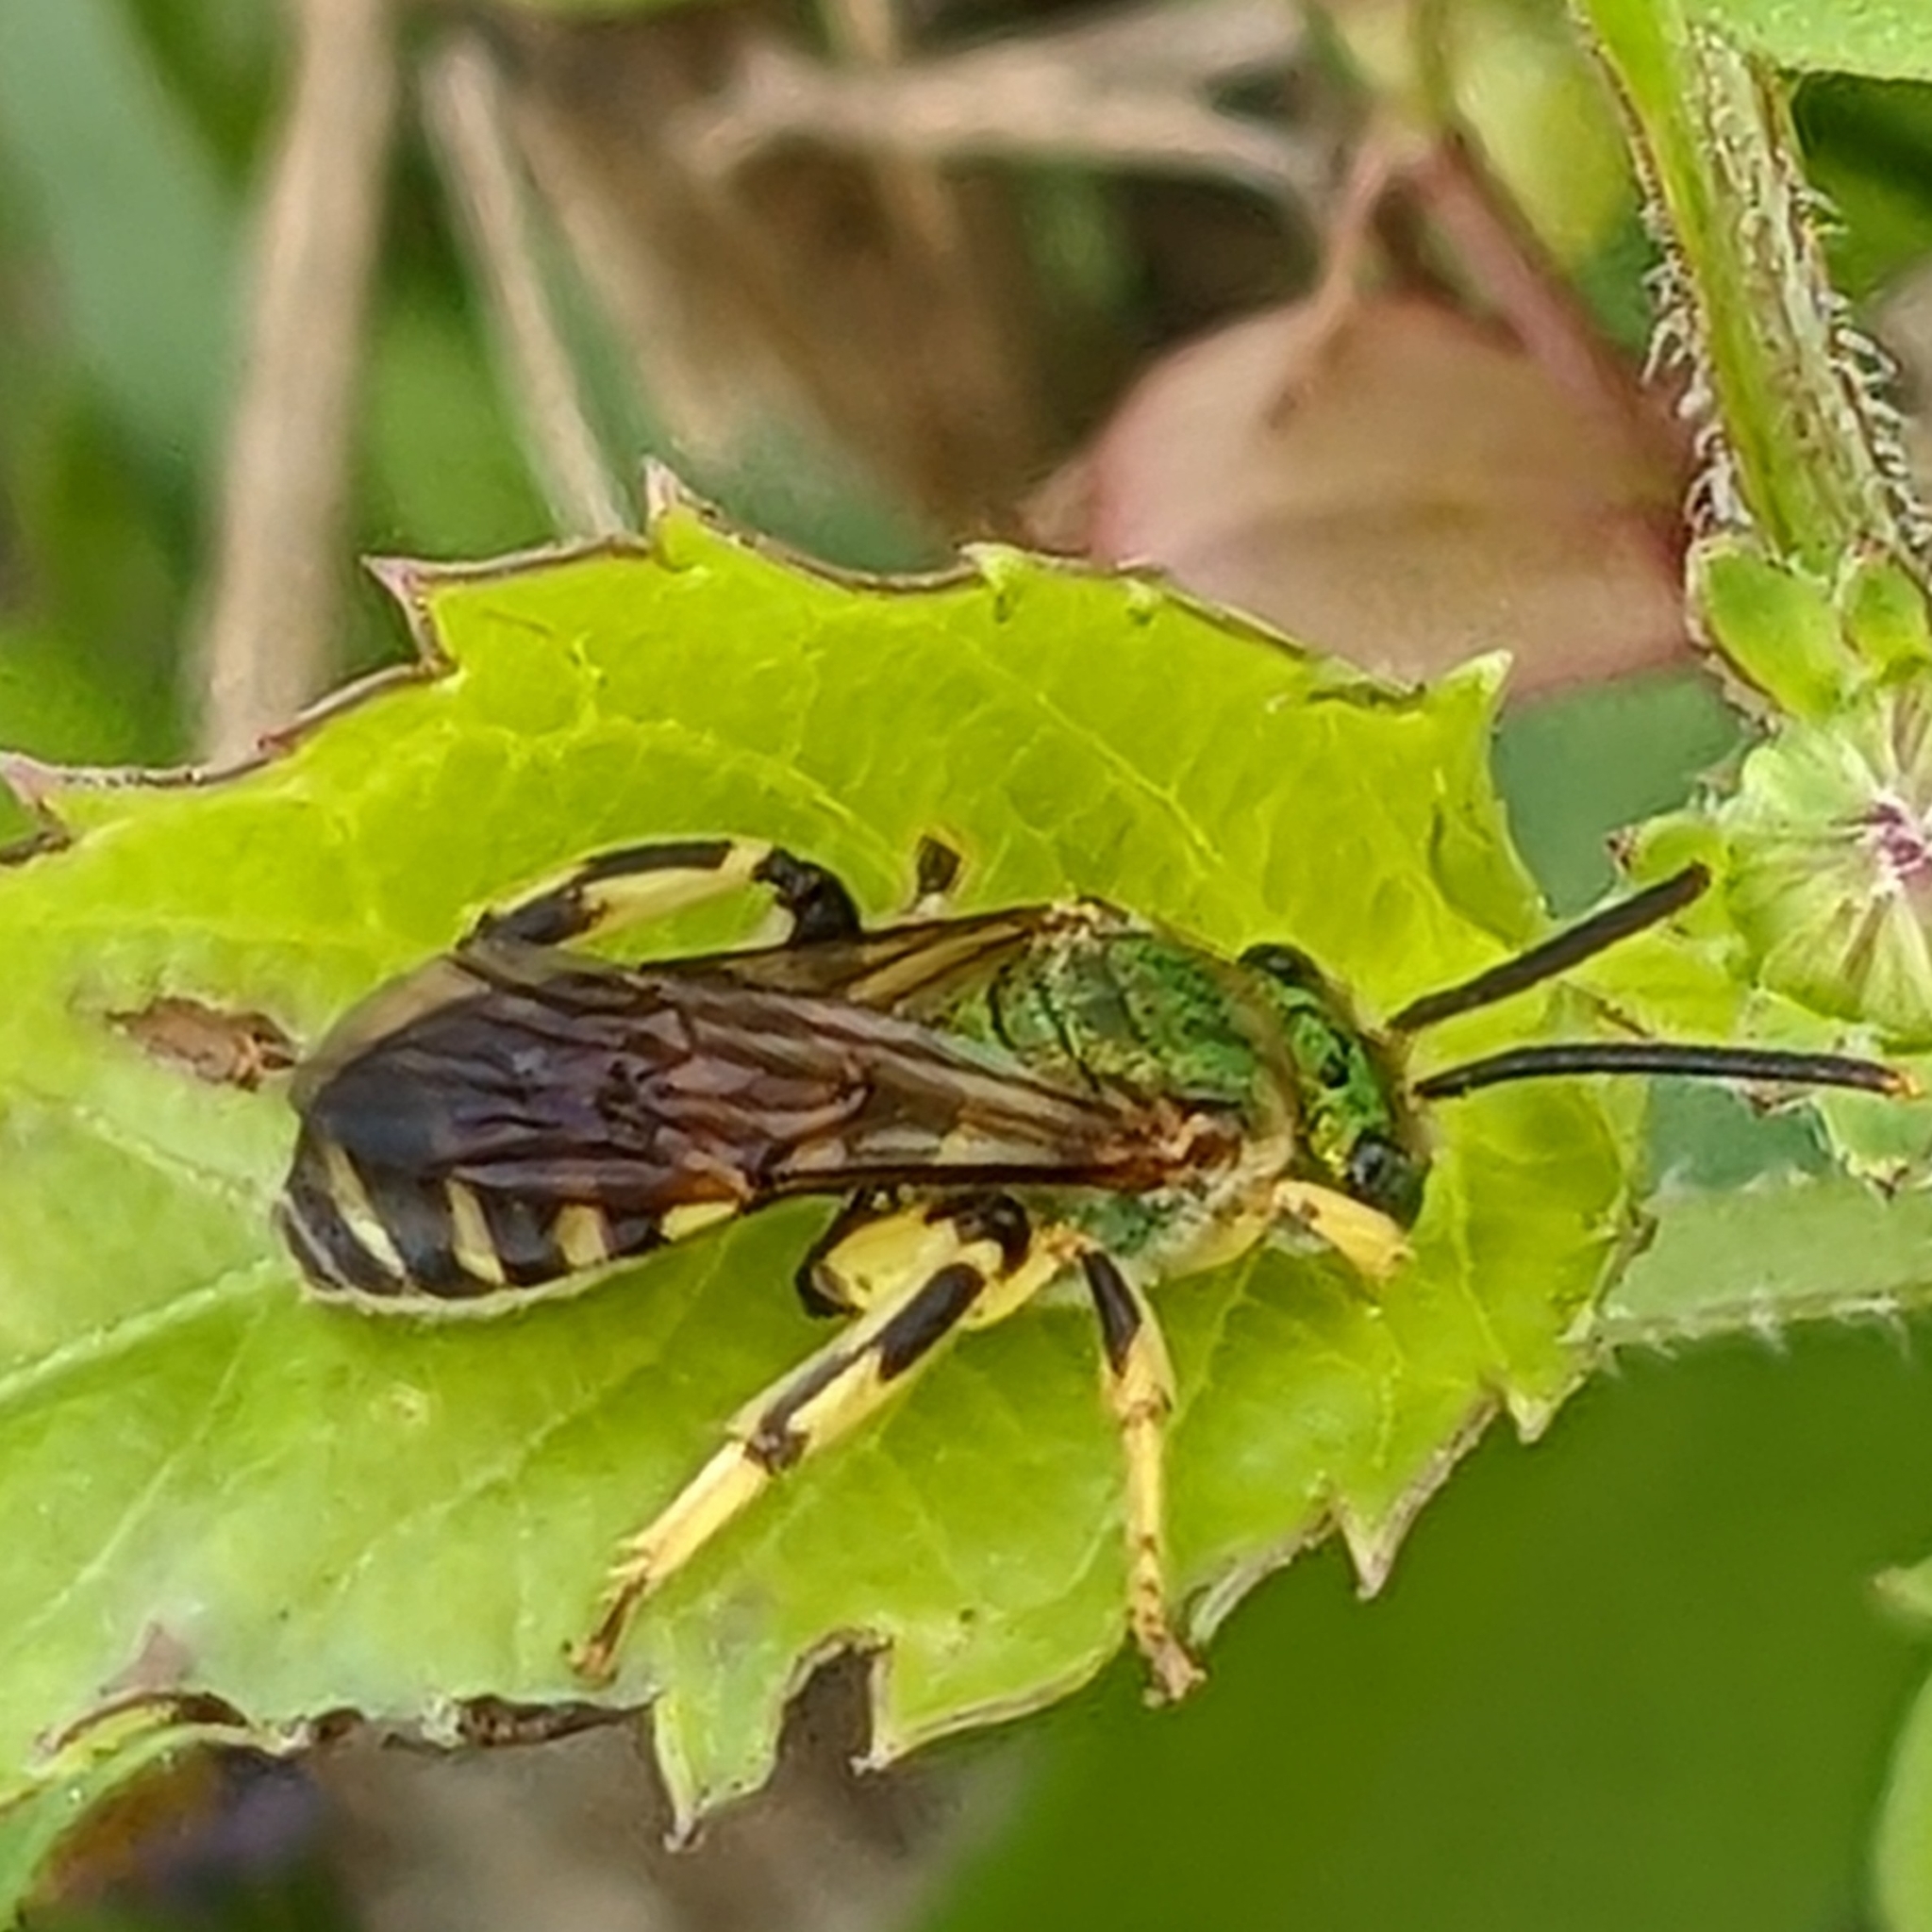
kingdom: Animalia
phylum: Arthropoda
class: Insecta
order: Hymenoptera
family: Halictidae
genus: Agapostemon
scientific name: Agapostemon splendens
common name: Brown-winged striped sweat bee
